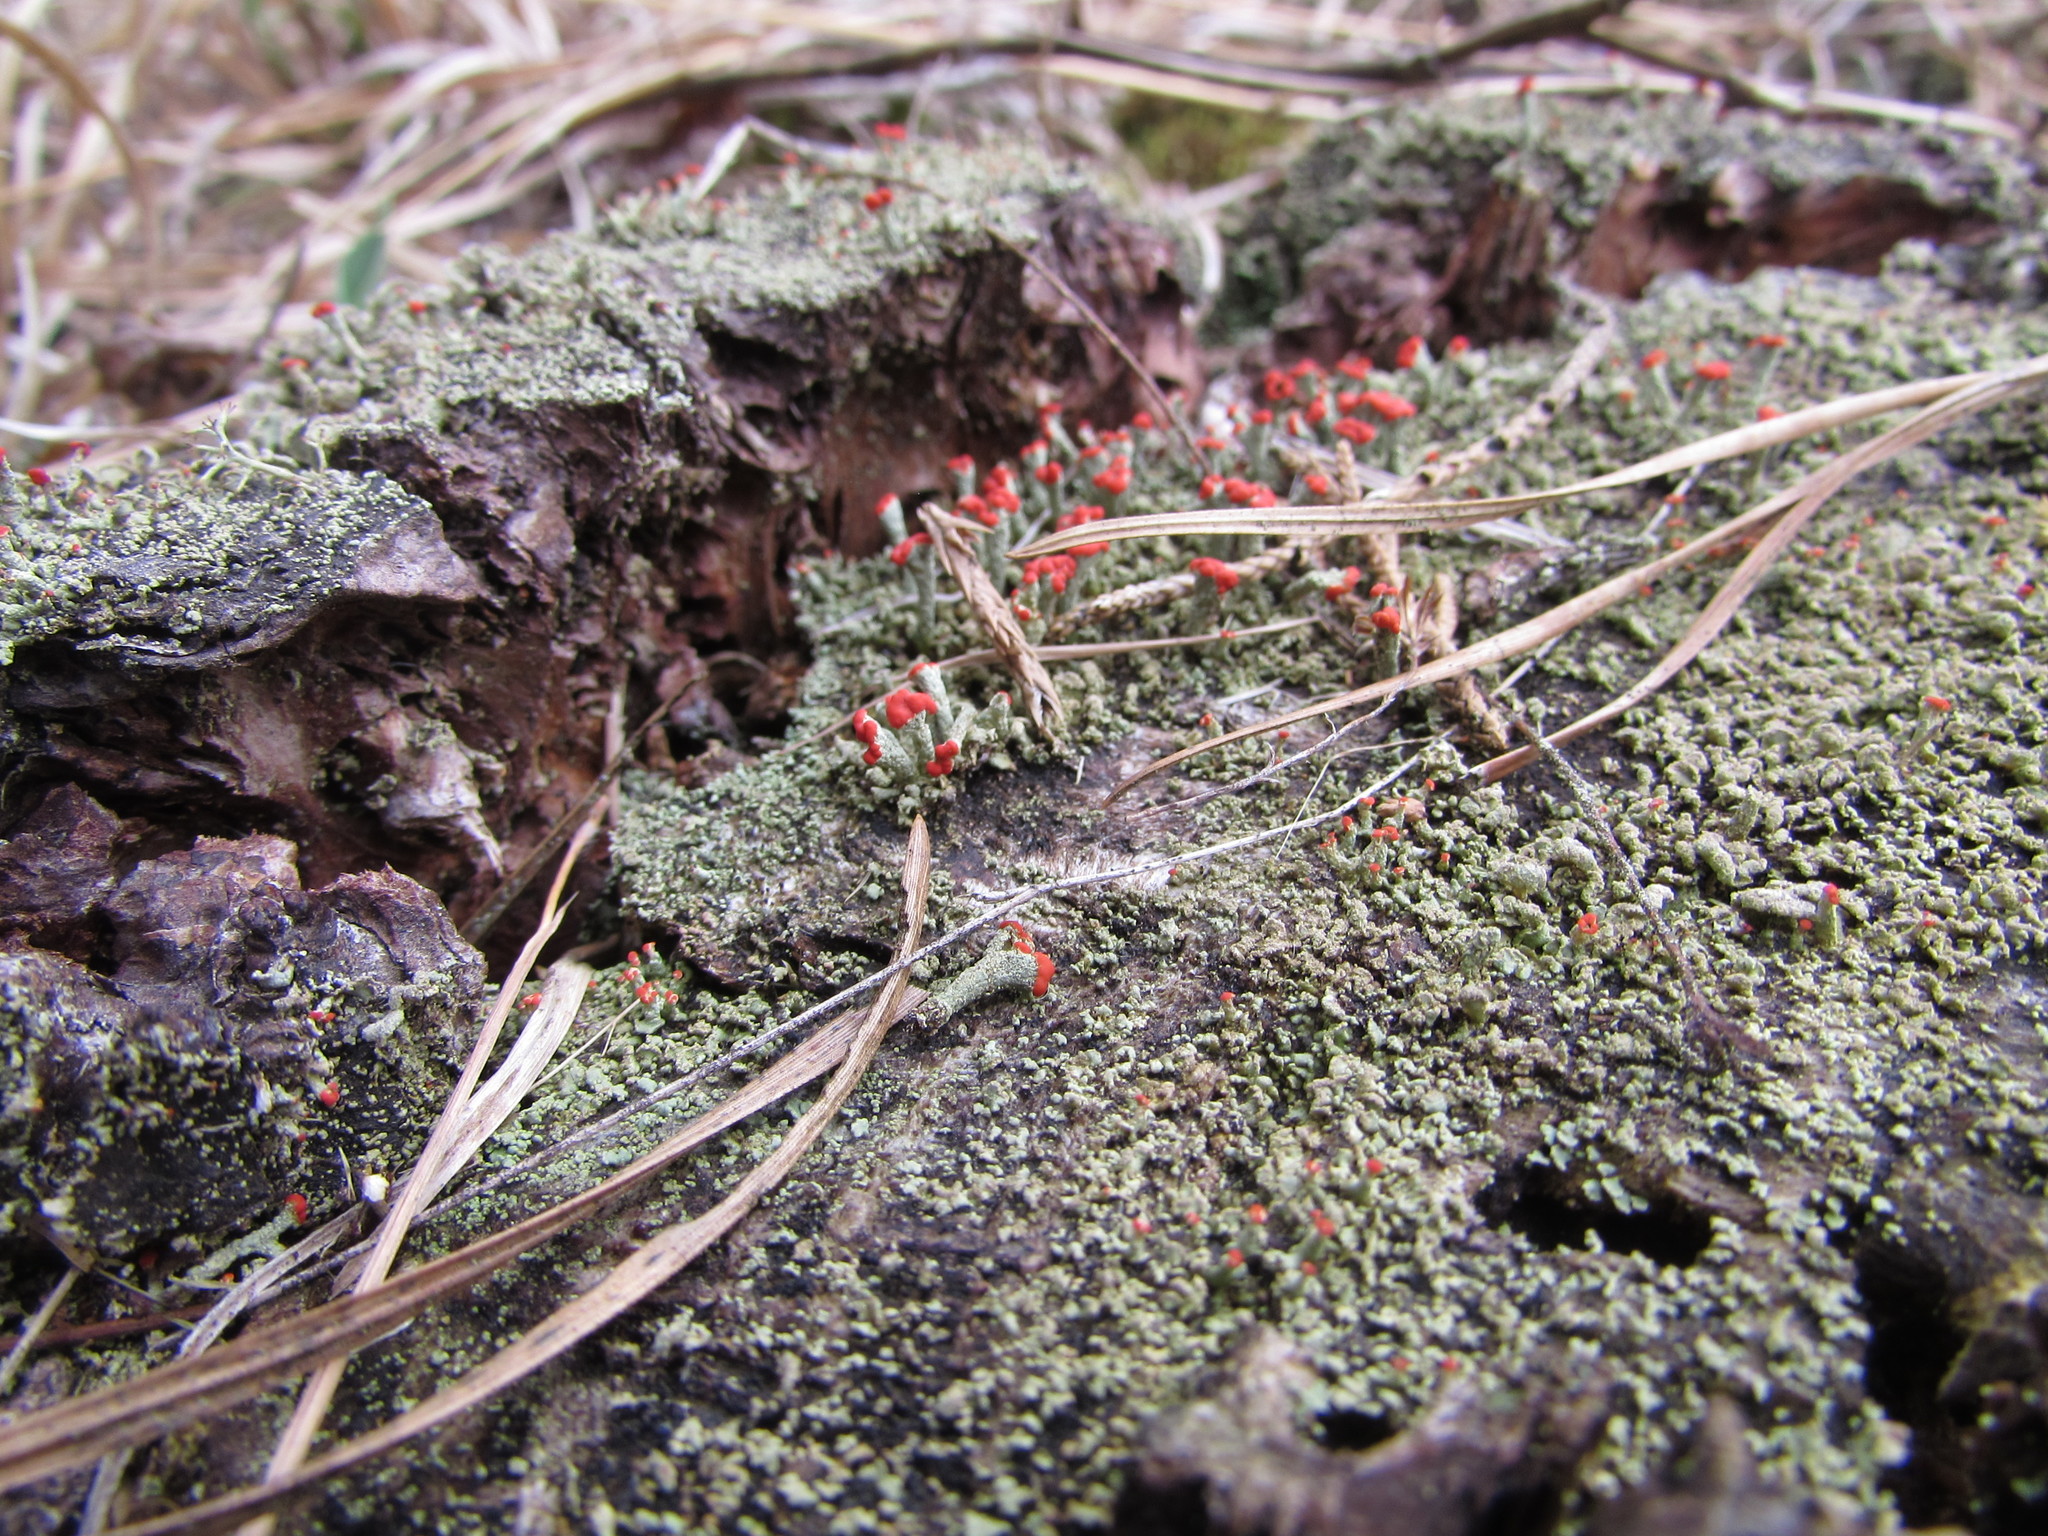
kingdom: Fungi
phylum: Ascomycota
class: Lecanoromycetes
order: Lecanorales
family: Cladoniaceae
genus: Cladonia
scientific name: Cladonia cristatella
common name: British soldier lichen
